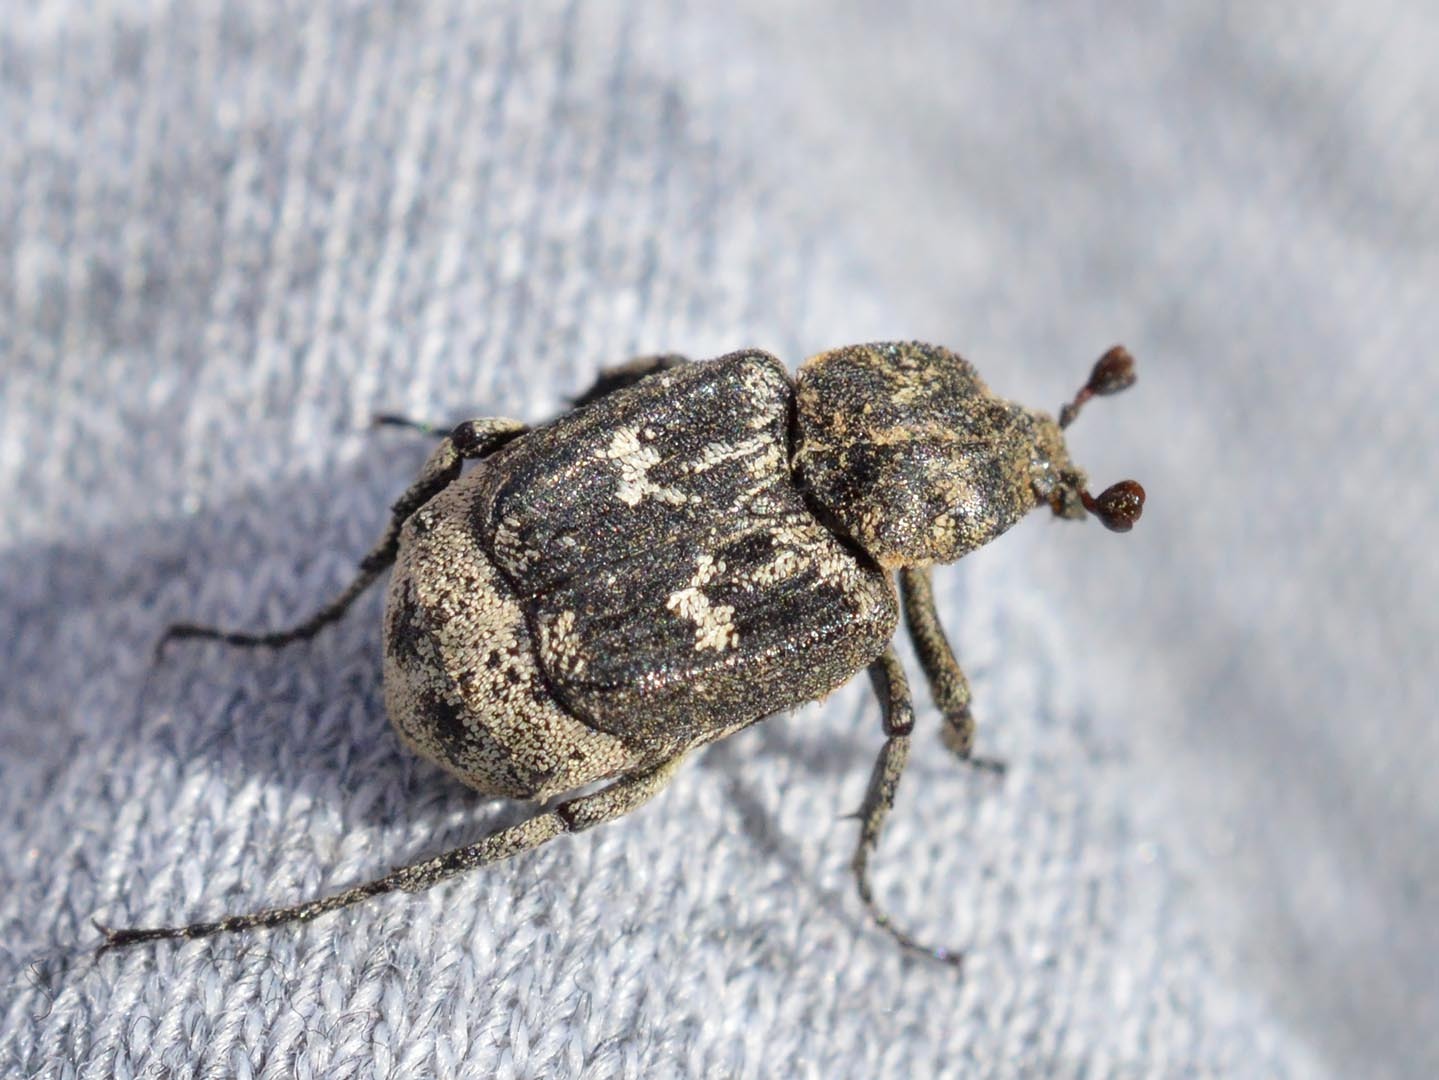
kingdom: Animalia
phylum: Arthropoda
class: Insecta
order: Coleoptera
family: Scarabaeidae
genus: Valgus
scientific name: Valgus hemipterus
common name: Bug flower chafer
